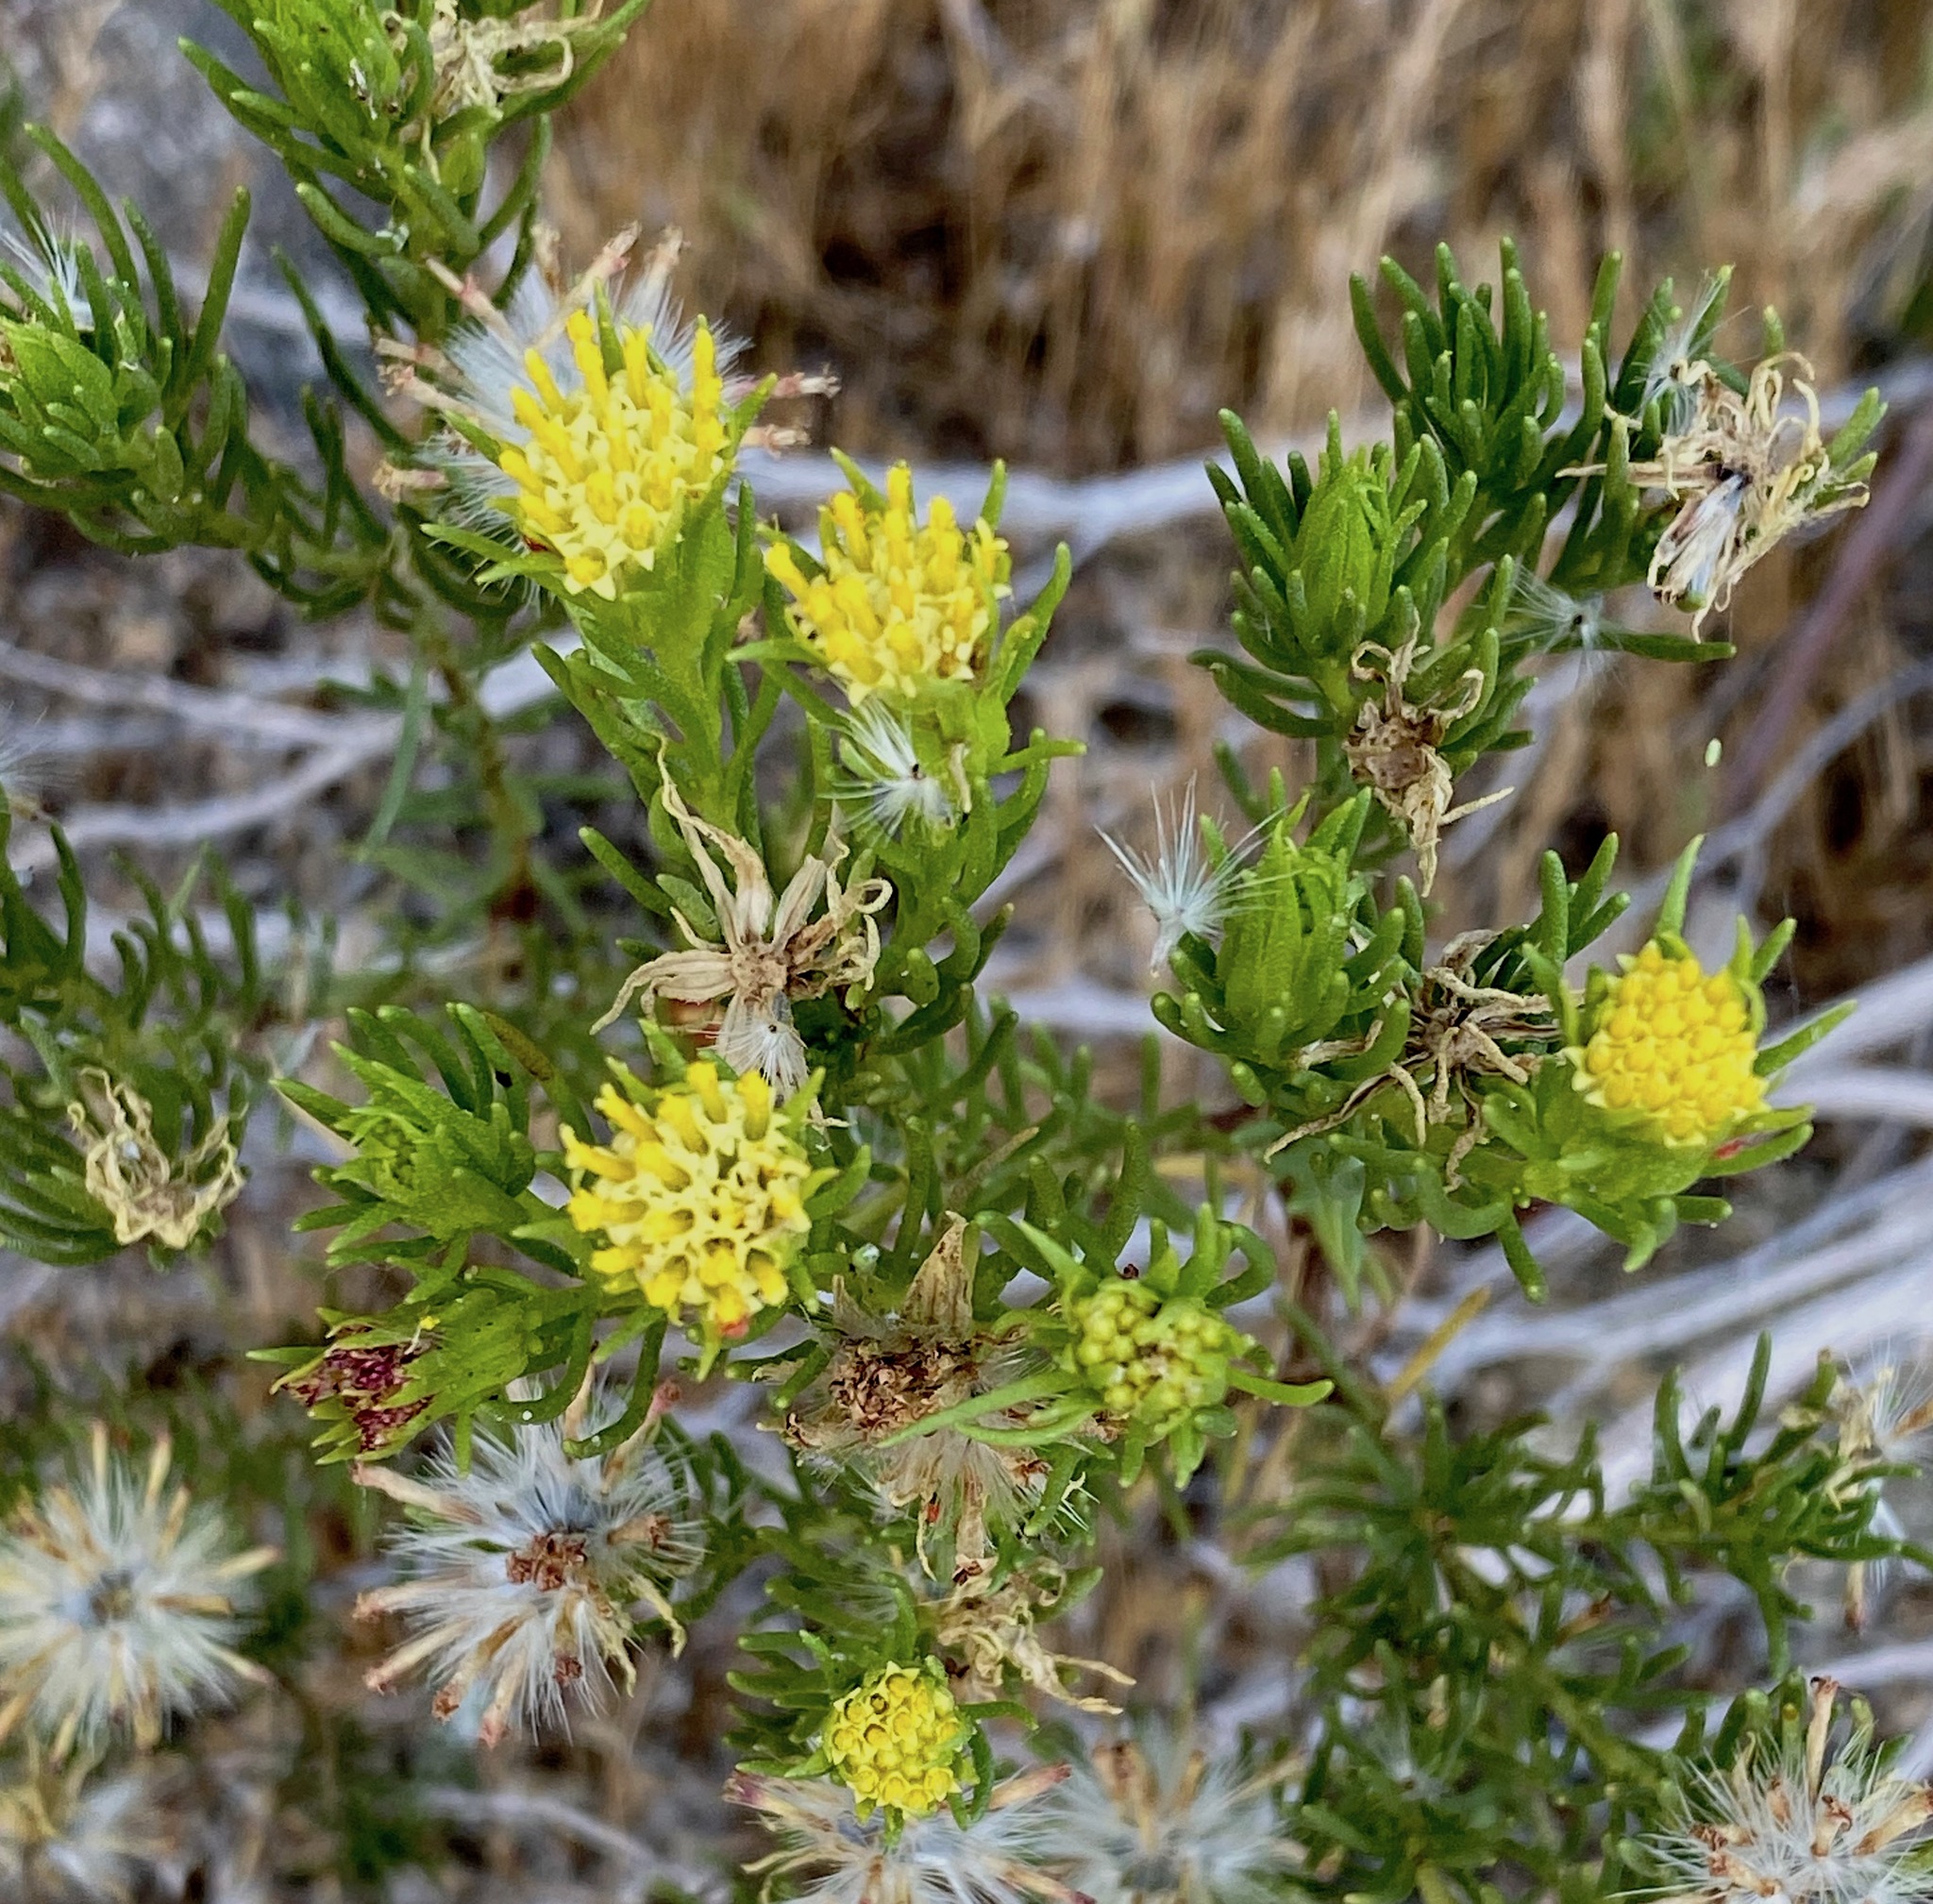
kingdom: Plantae
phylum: Tracheophyta
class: Magnoliopsida
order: Asterales
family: Asteraceae
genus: Peucephyllum
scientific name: Peucephyllum schottii
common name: Pygmy-cedar
